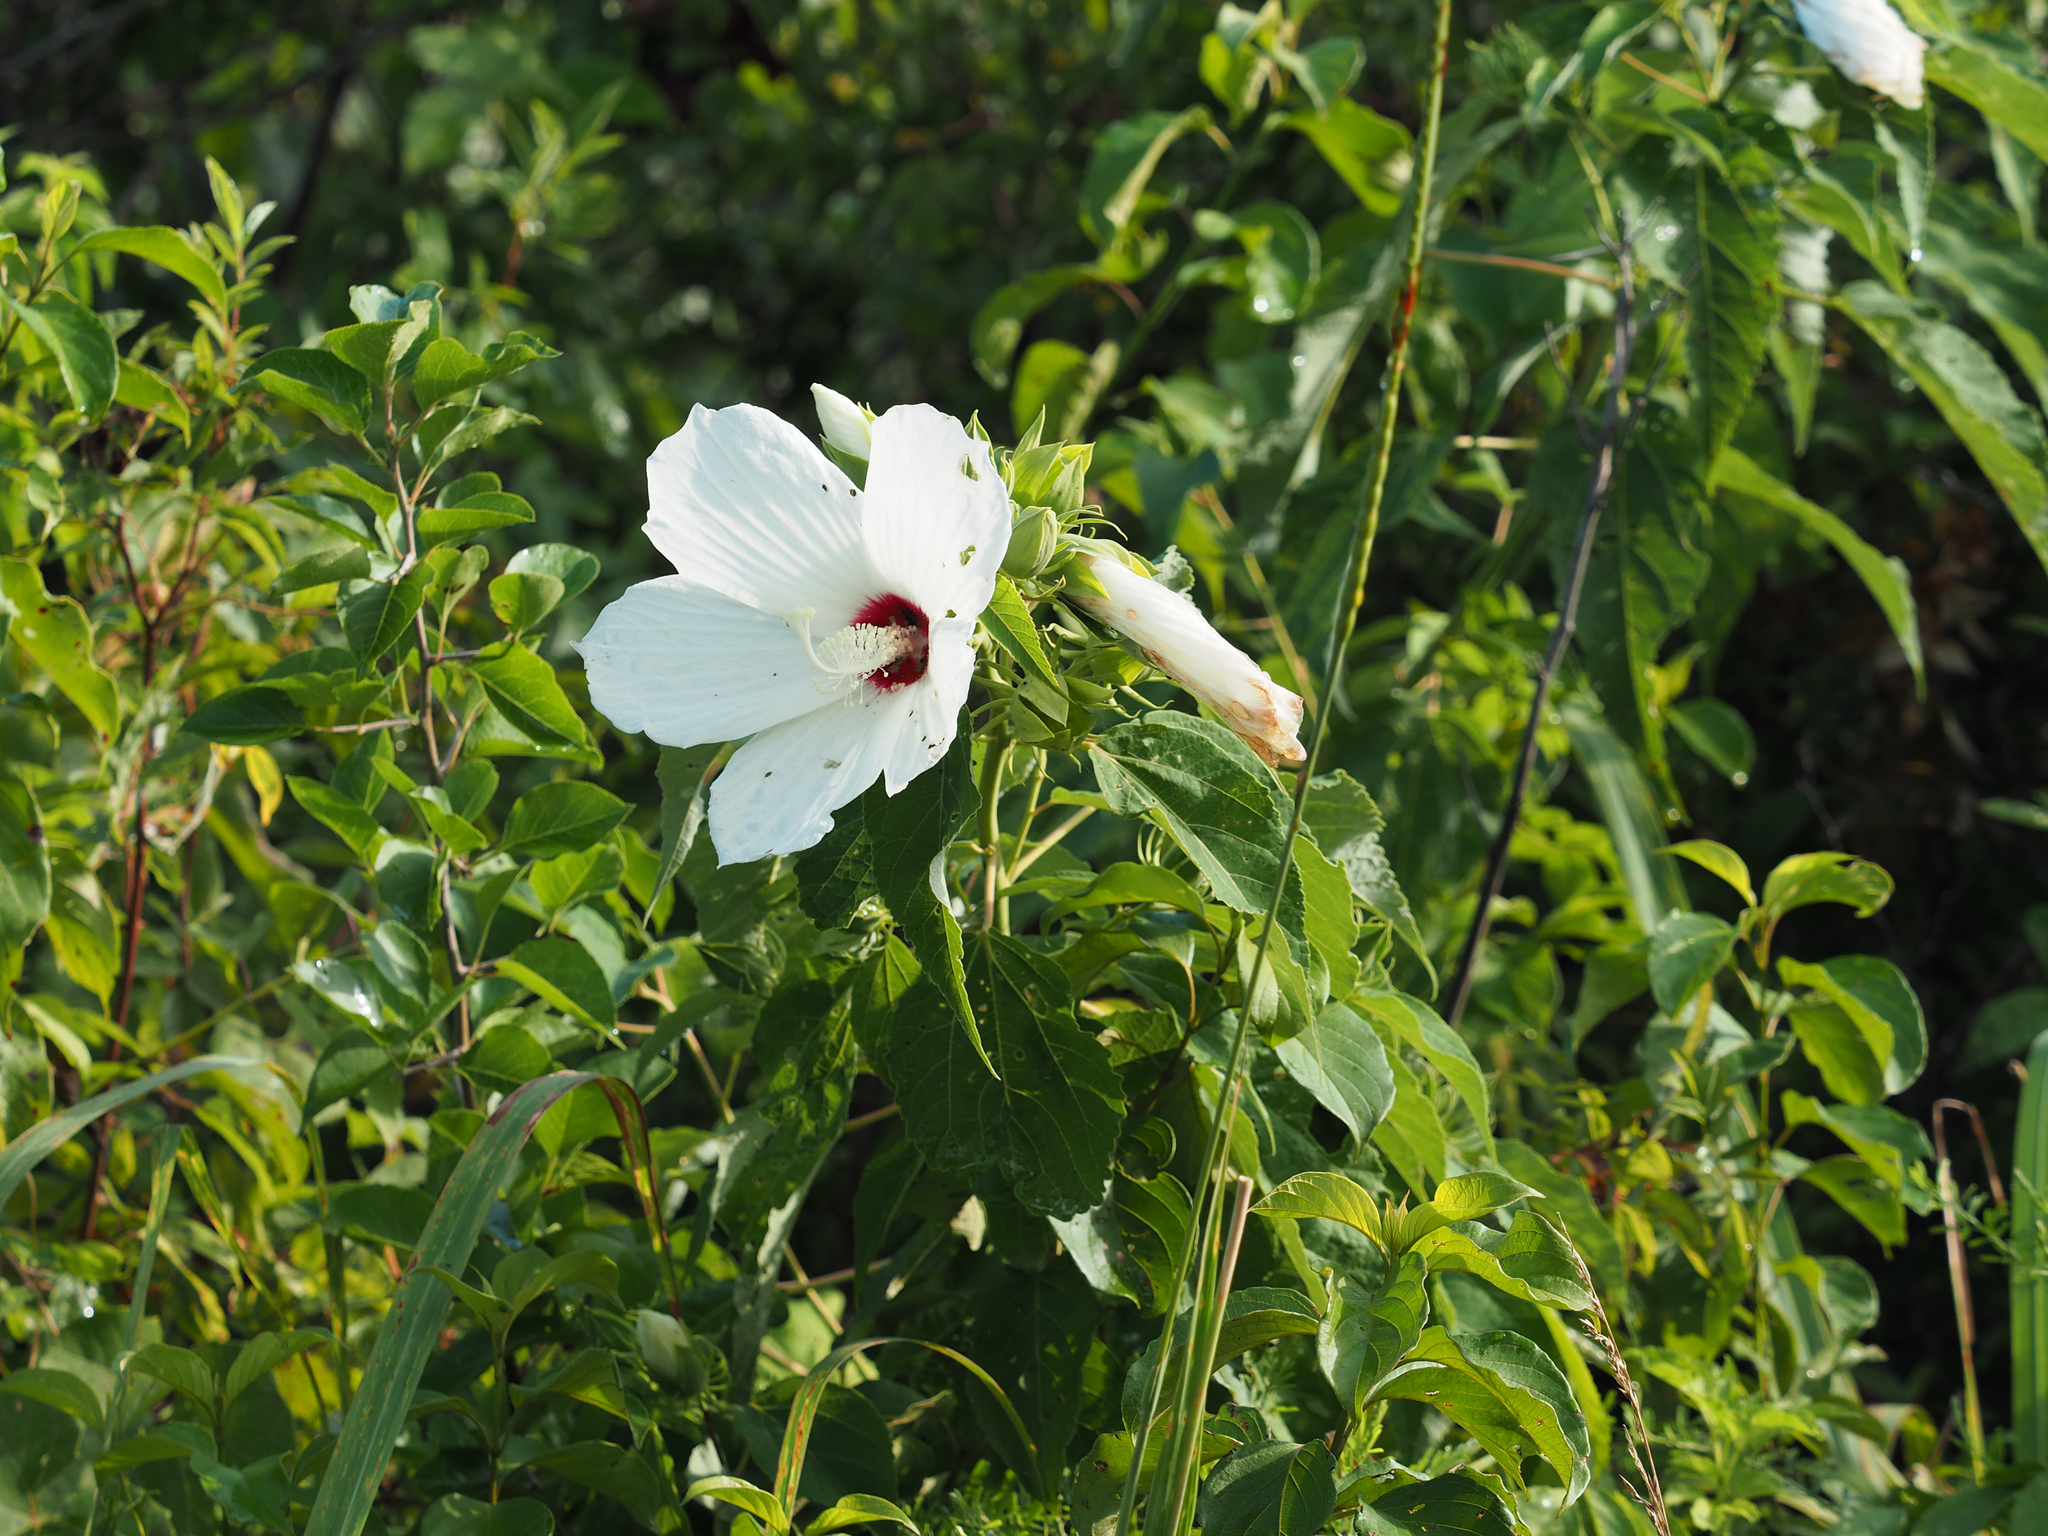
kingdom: Plantae
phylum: Tracheophyta
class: Magnoliopsida
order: Malvales
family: Malvaceae
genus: Hibiscus
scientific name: Hibiscus moscheutos
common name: Common rose-mallow
